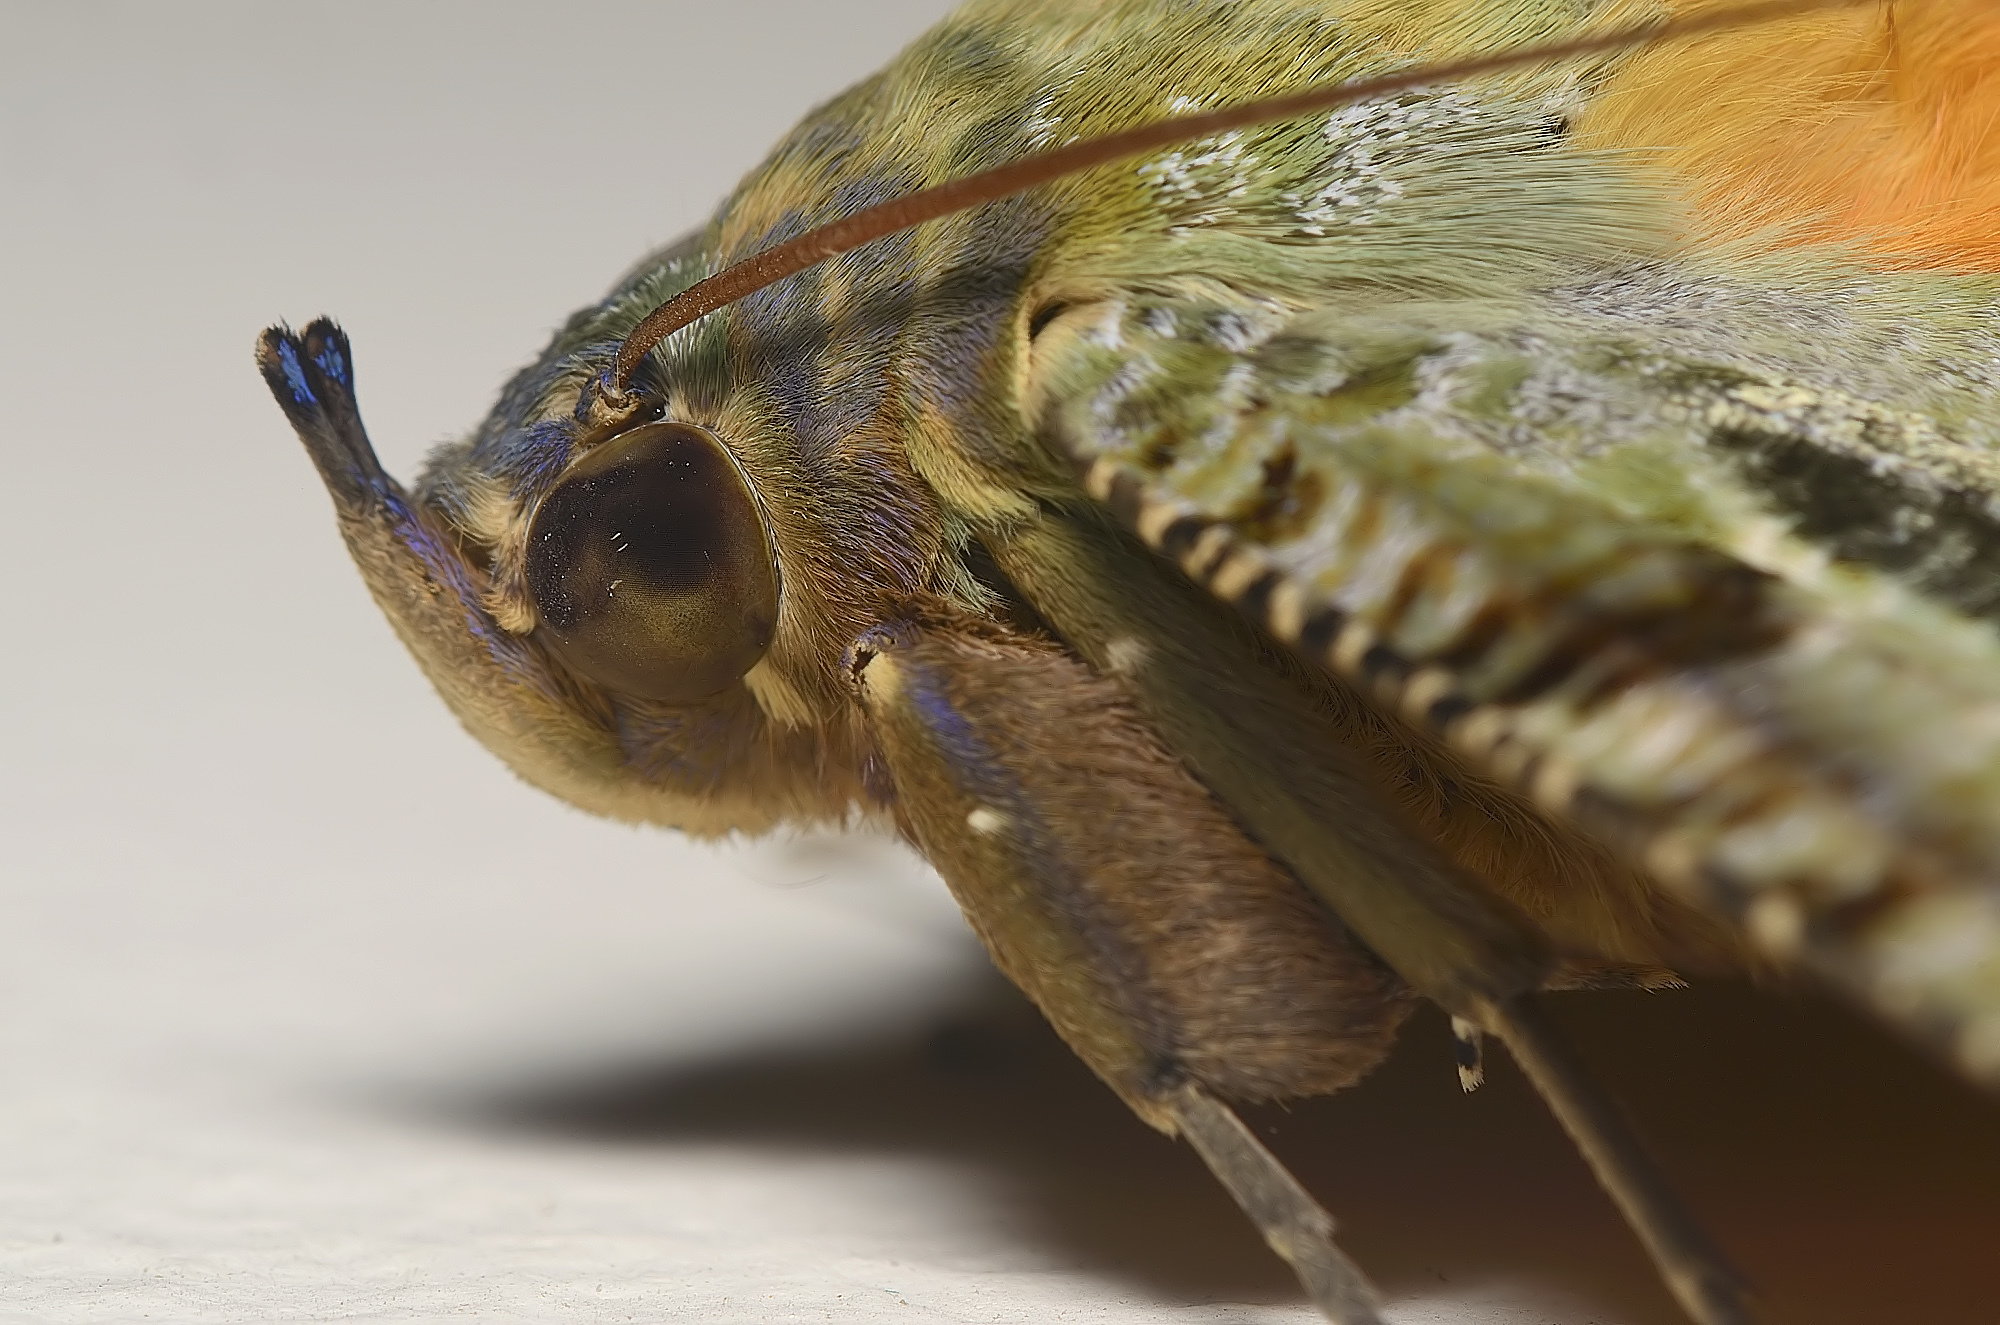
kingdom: Animalia
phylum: Arthropoda
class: Insecta
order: Lepidoptera
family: Erebidae
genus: Eudocima
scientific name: Eudocima materna
